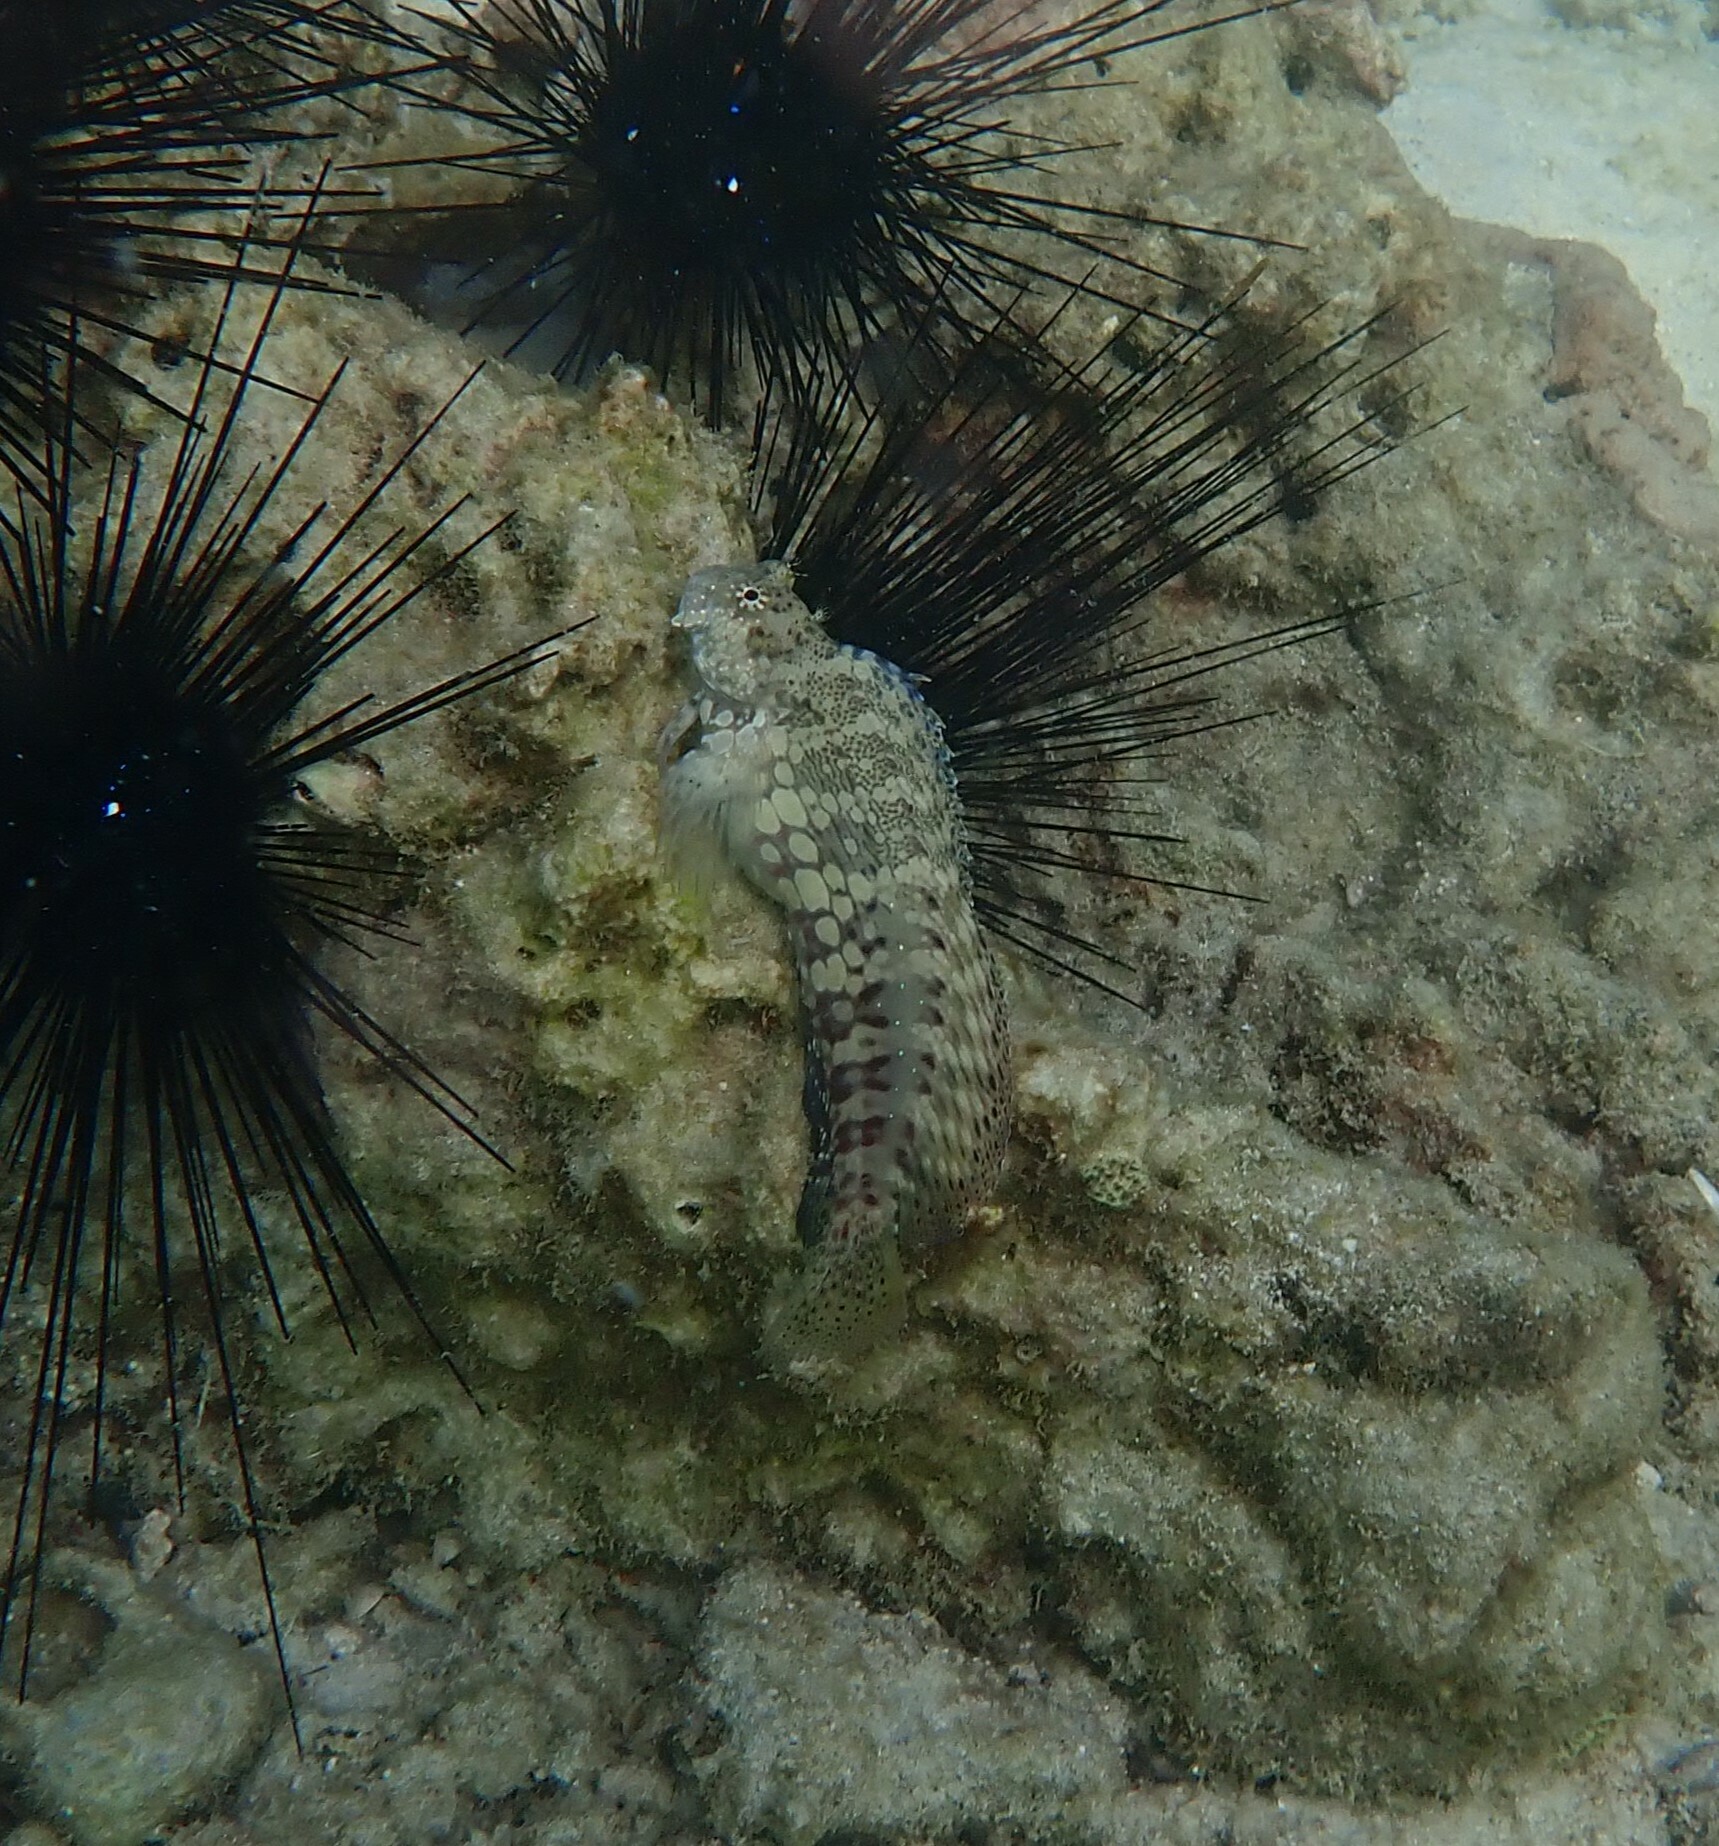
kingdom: Animalia
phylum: Chordata
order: Perciformes
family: Blenniidae
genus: Salarias
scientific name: Salarias fasciatus
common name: Jewelled blenny
